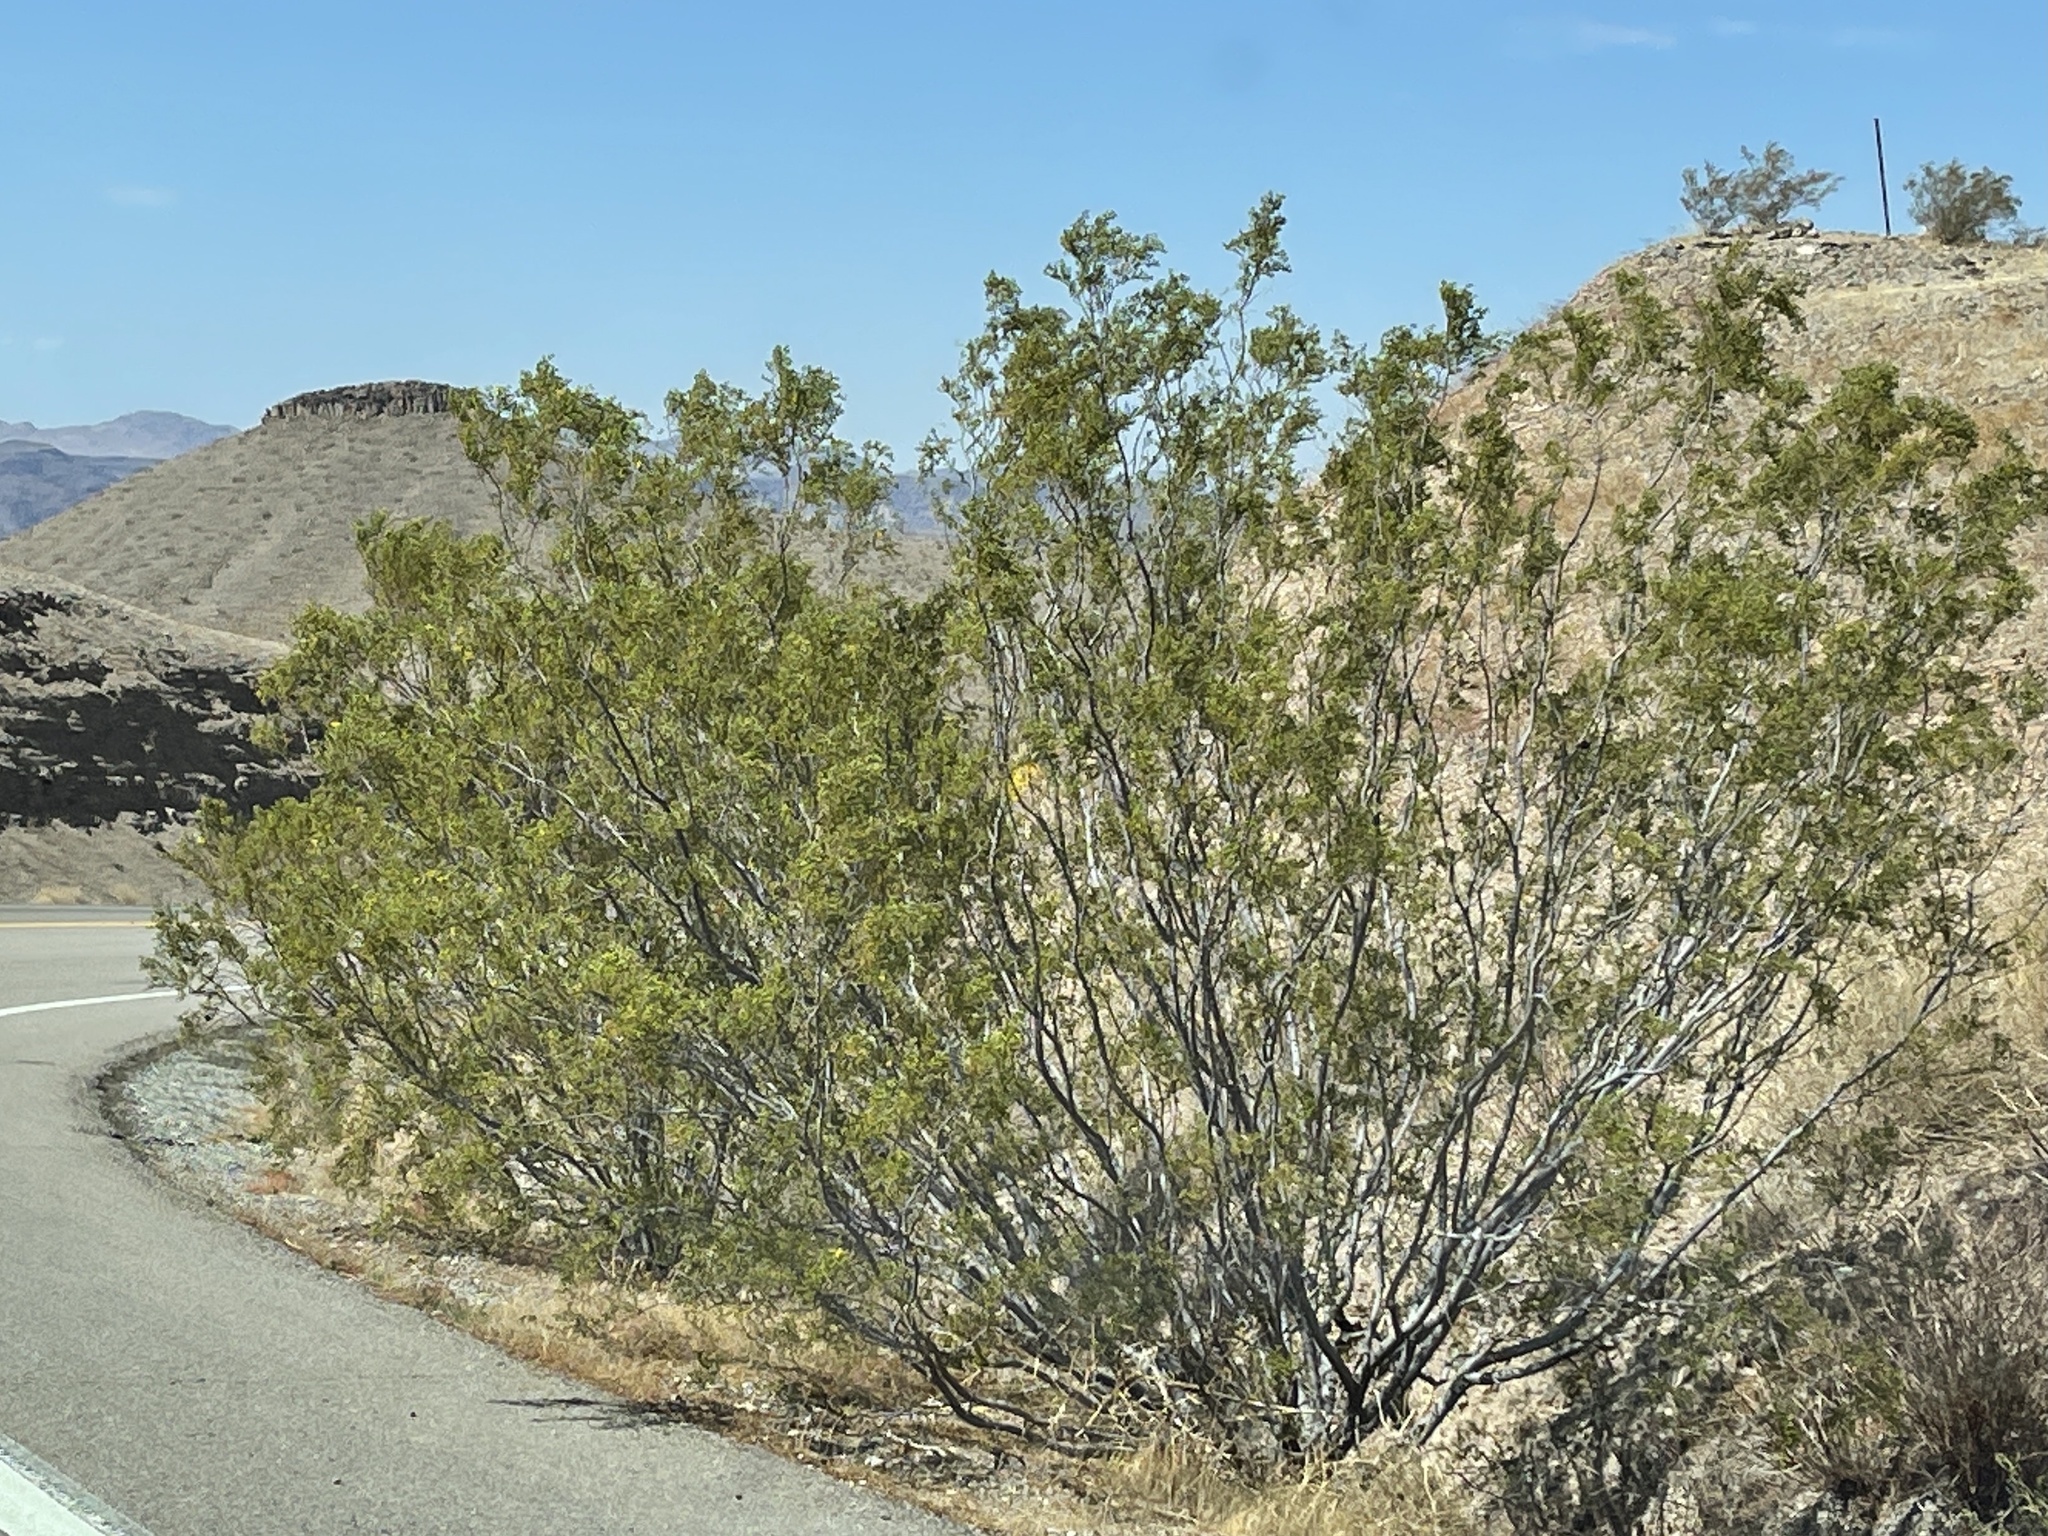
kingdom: Plantae
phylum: Tracheophyta
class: Magnoliopsida
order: Zygophyllales
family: Zygophyllaceae
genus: Larrea
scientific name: Larrea tridentata
